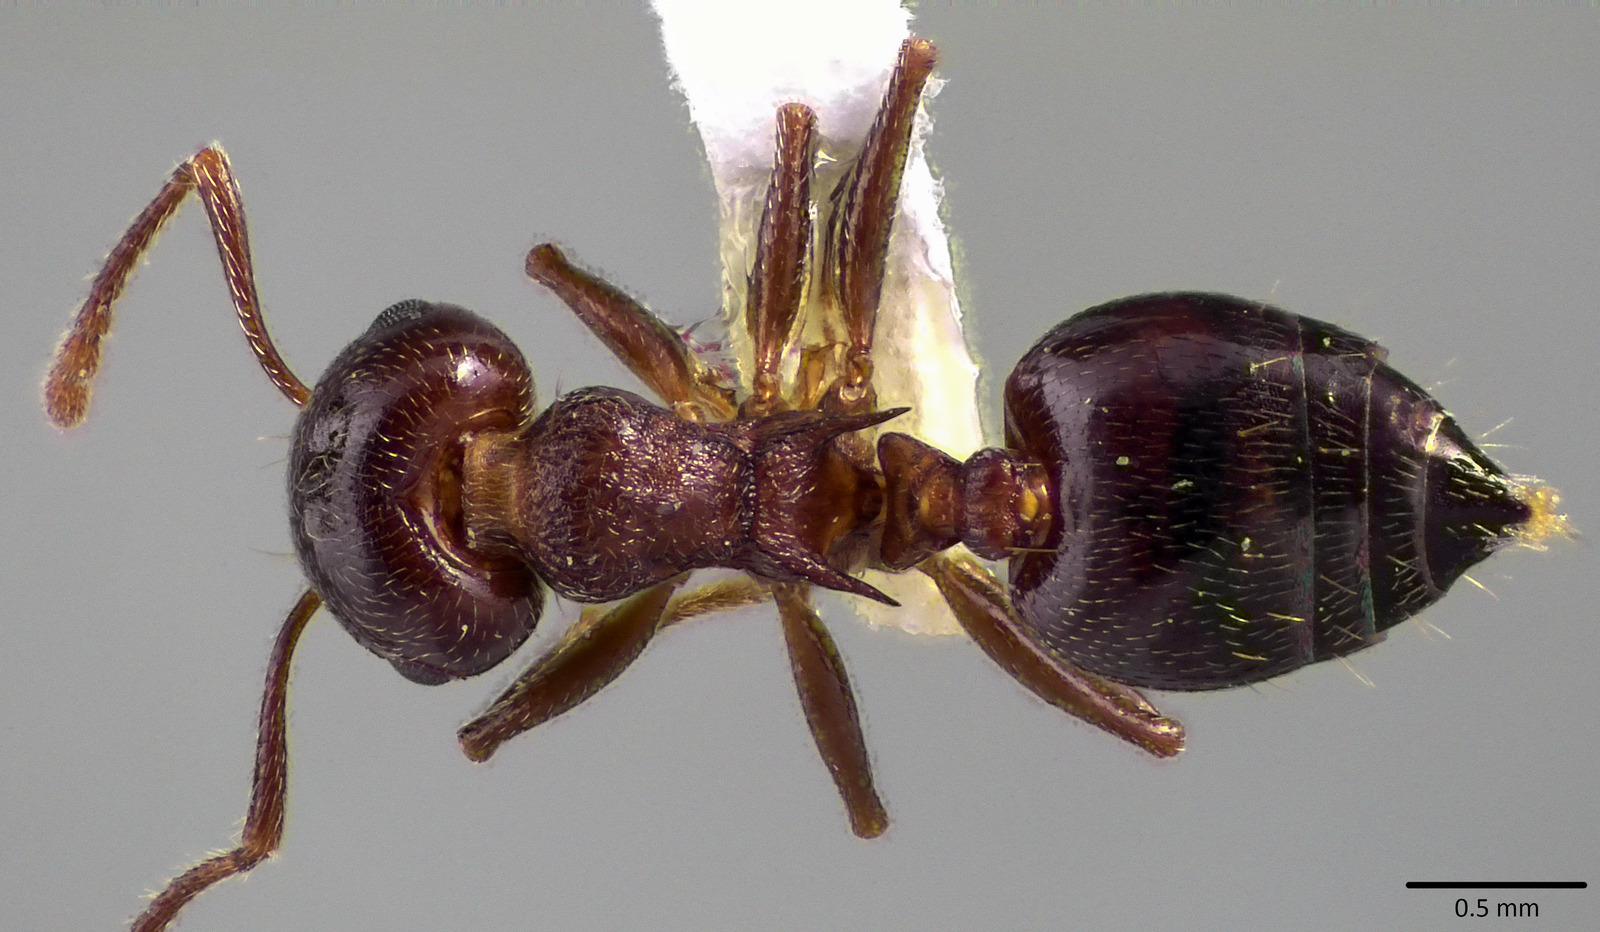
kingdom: Animalia
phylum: Arthropoda
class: Insecta
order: Hymenoptera
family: Formicidae
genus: Crematogaster
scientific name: Crematogaster cerasi
